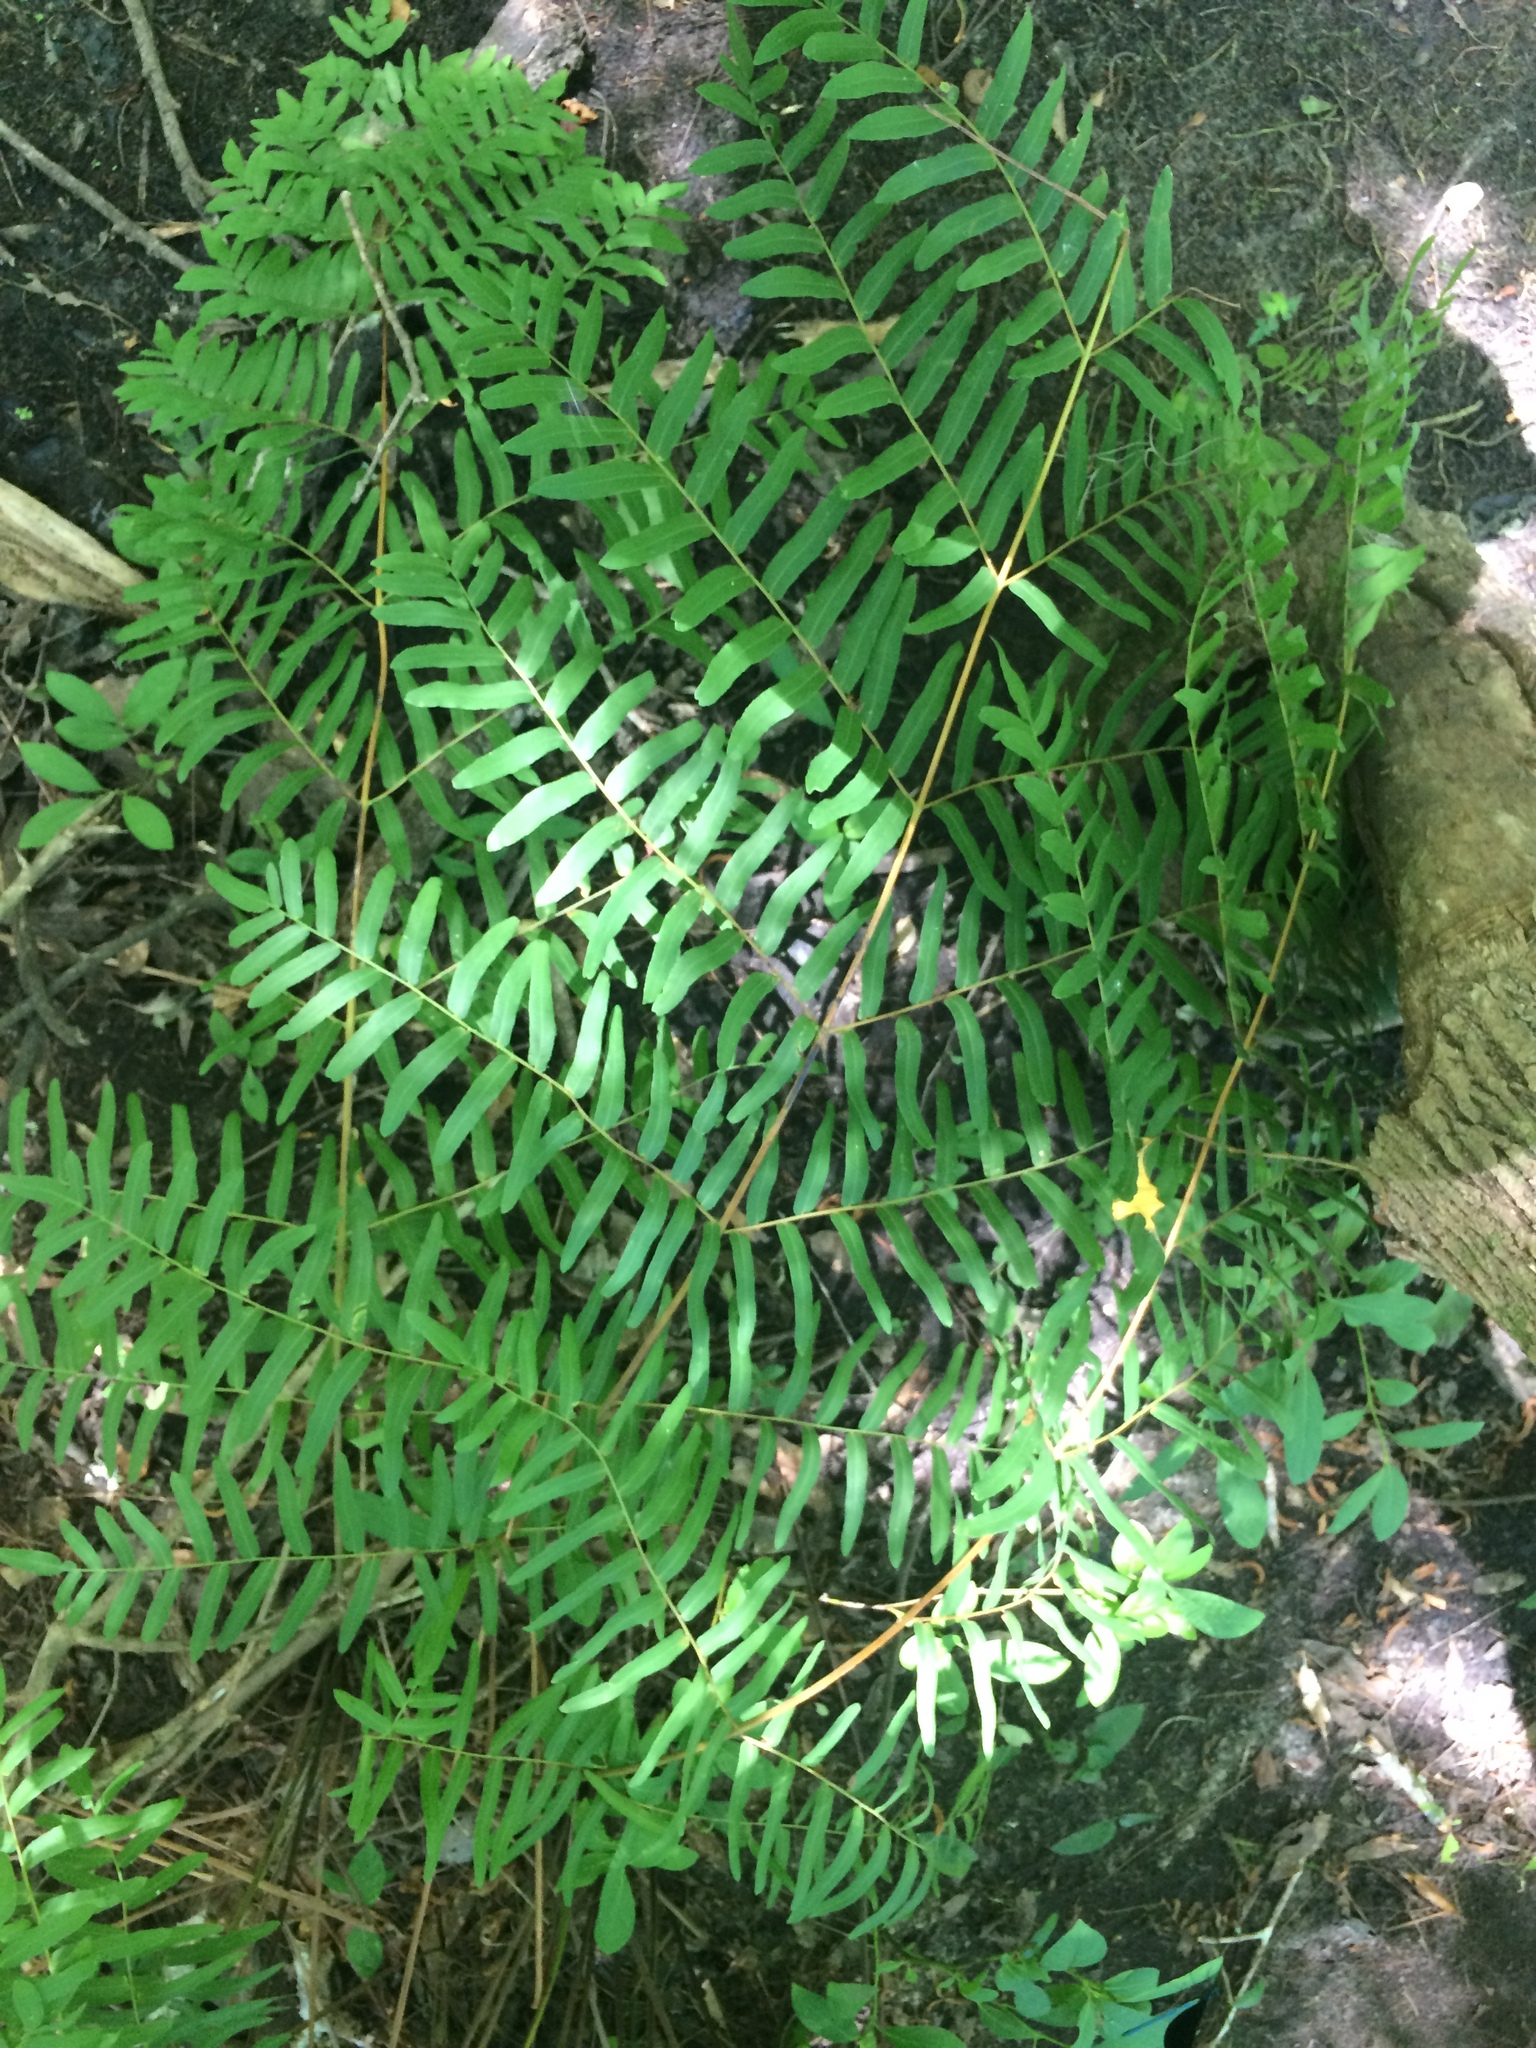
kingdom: Plantae
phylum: Tracheophyta
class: Polypodiopsida
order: Osmundales
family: Osmundaceae
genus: Osmunda
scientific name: Osmunda spectabilis
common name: American royal fern
